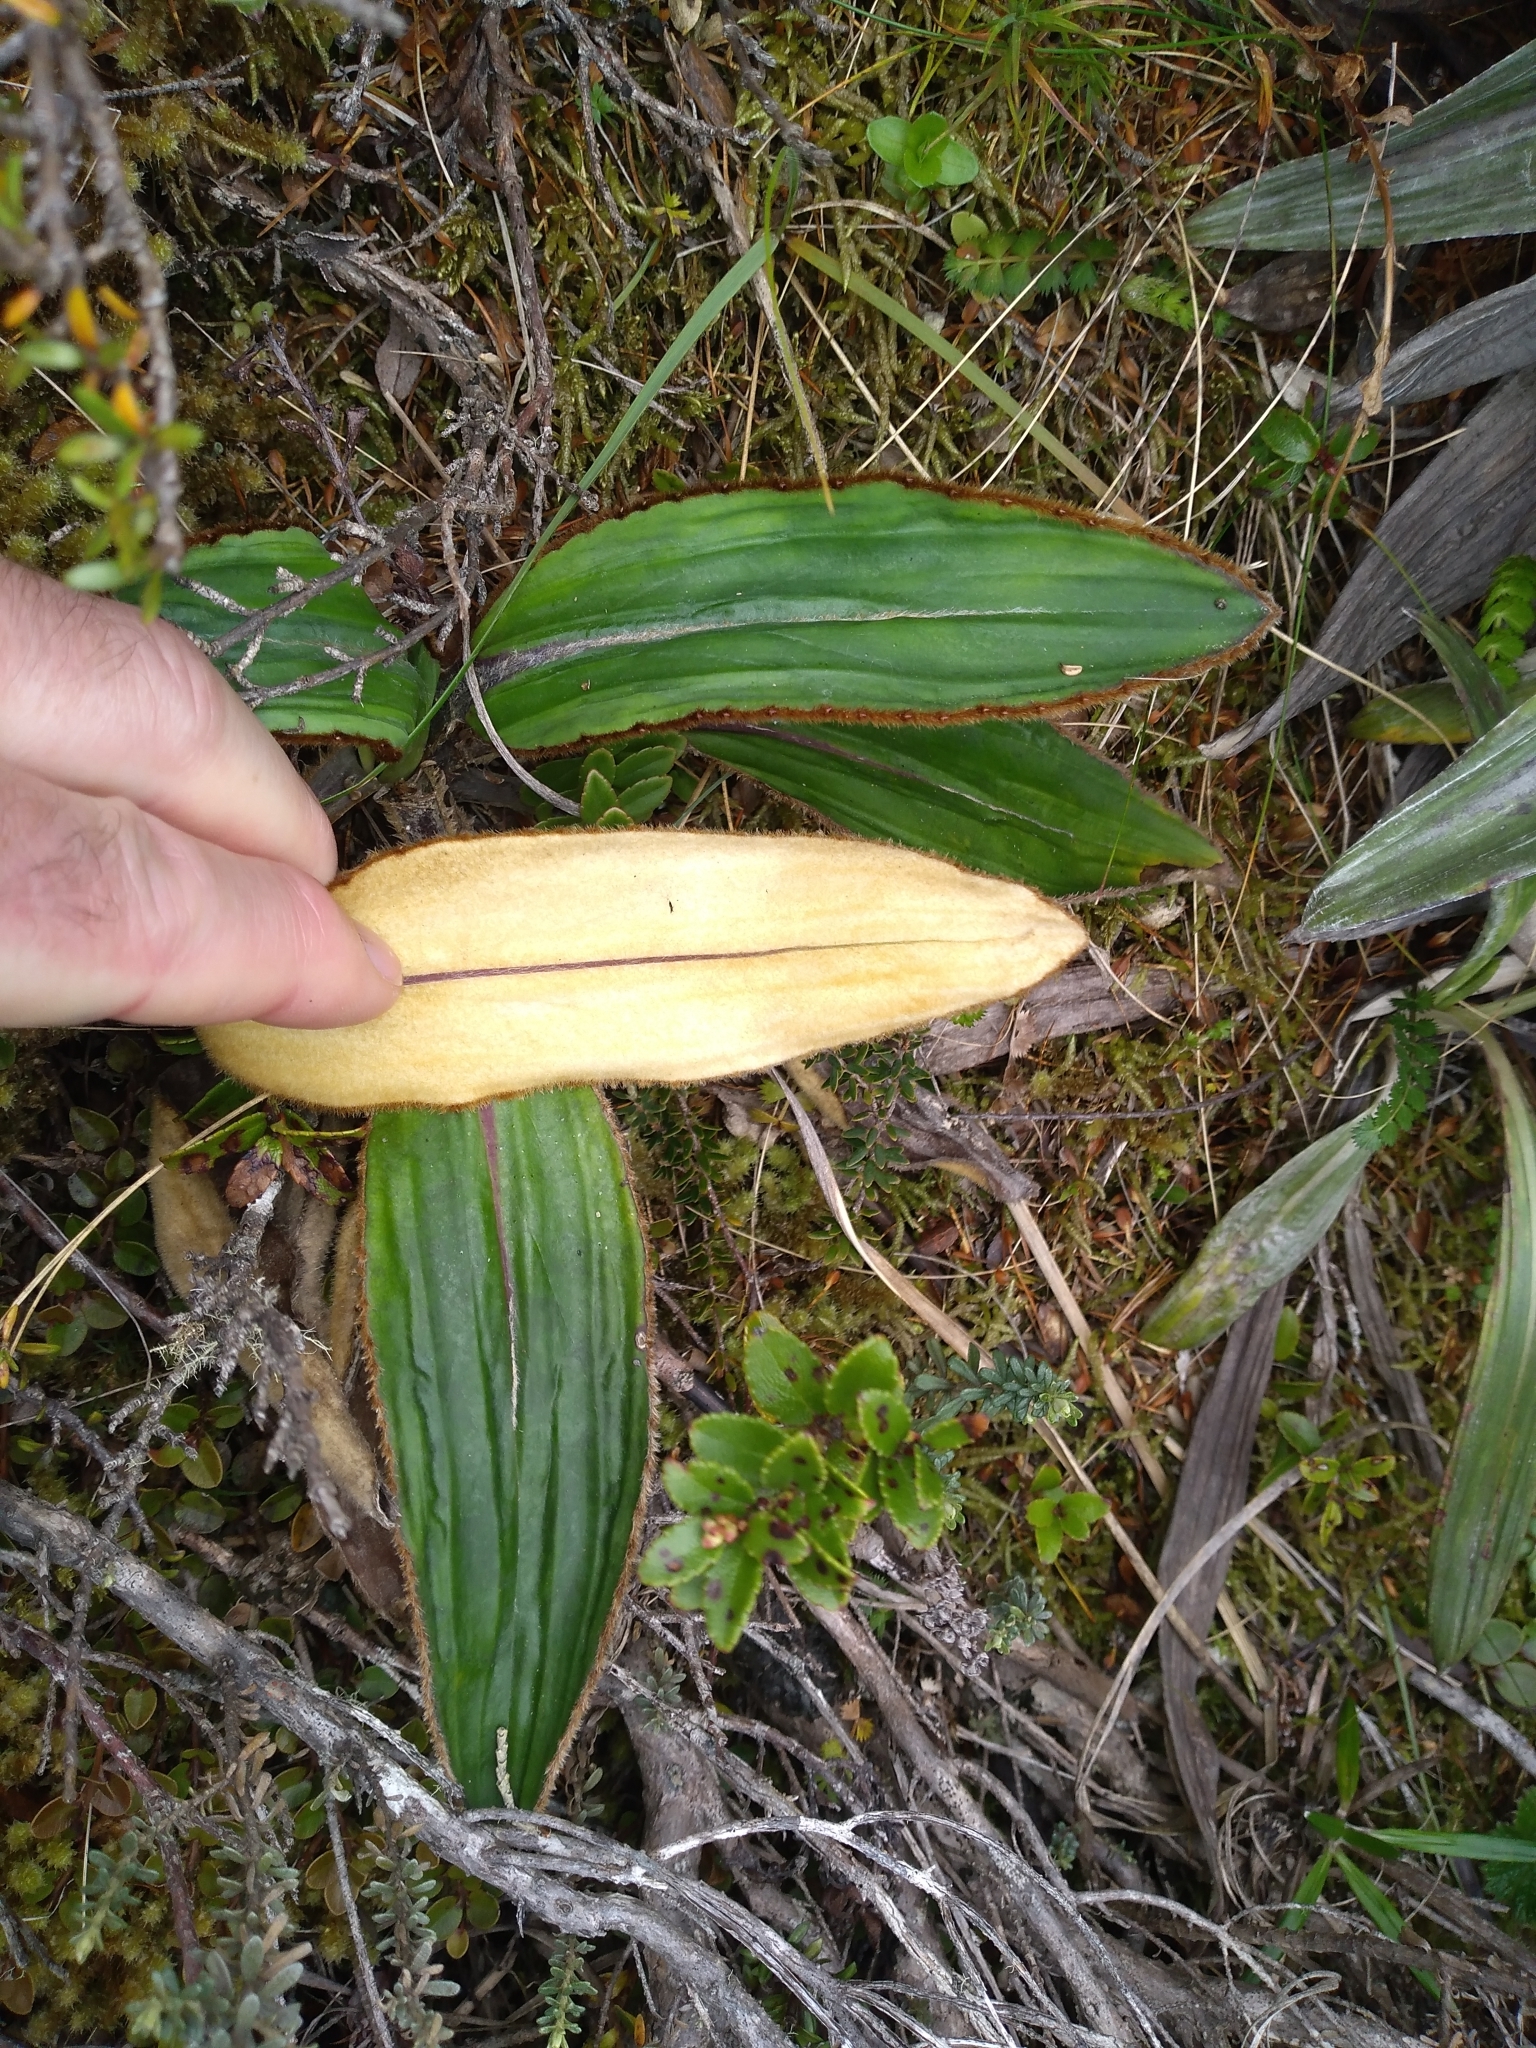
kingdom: Plantae
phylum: Tracheophyta
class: Magnoliopsida
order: Asterales
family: Asteraceae
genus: Celmisia
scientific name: Celmisia traversii
